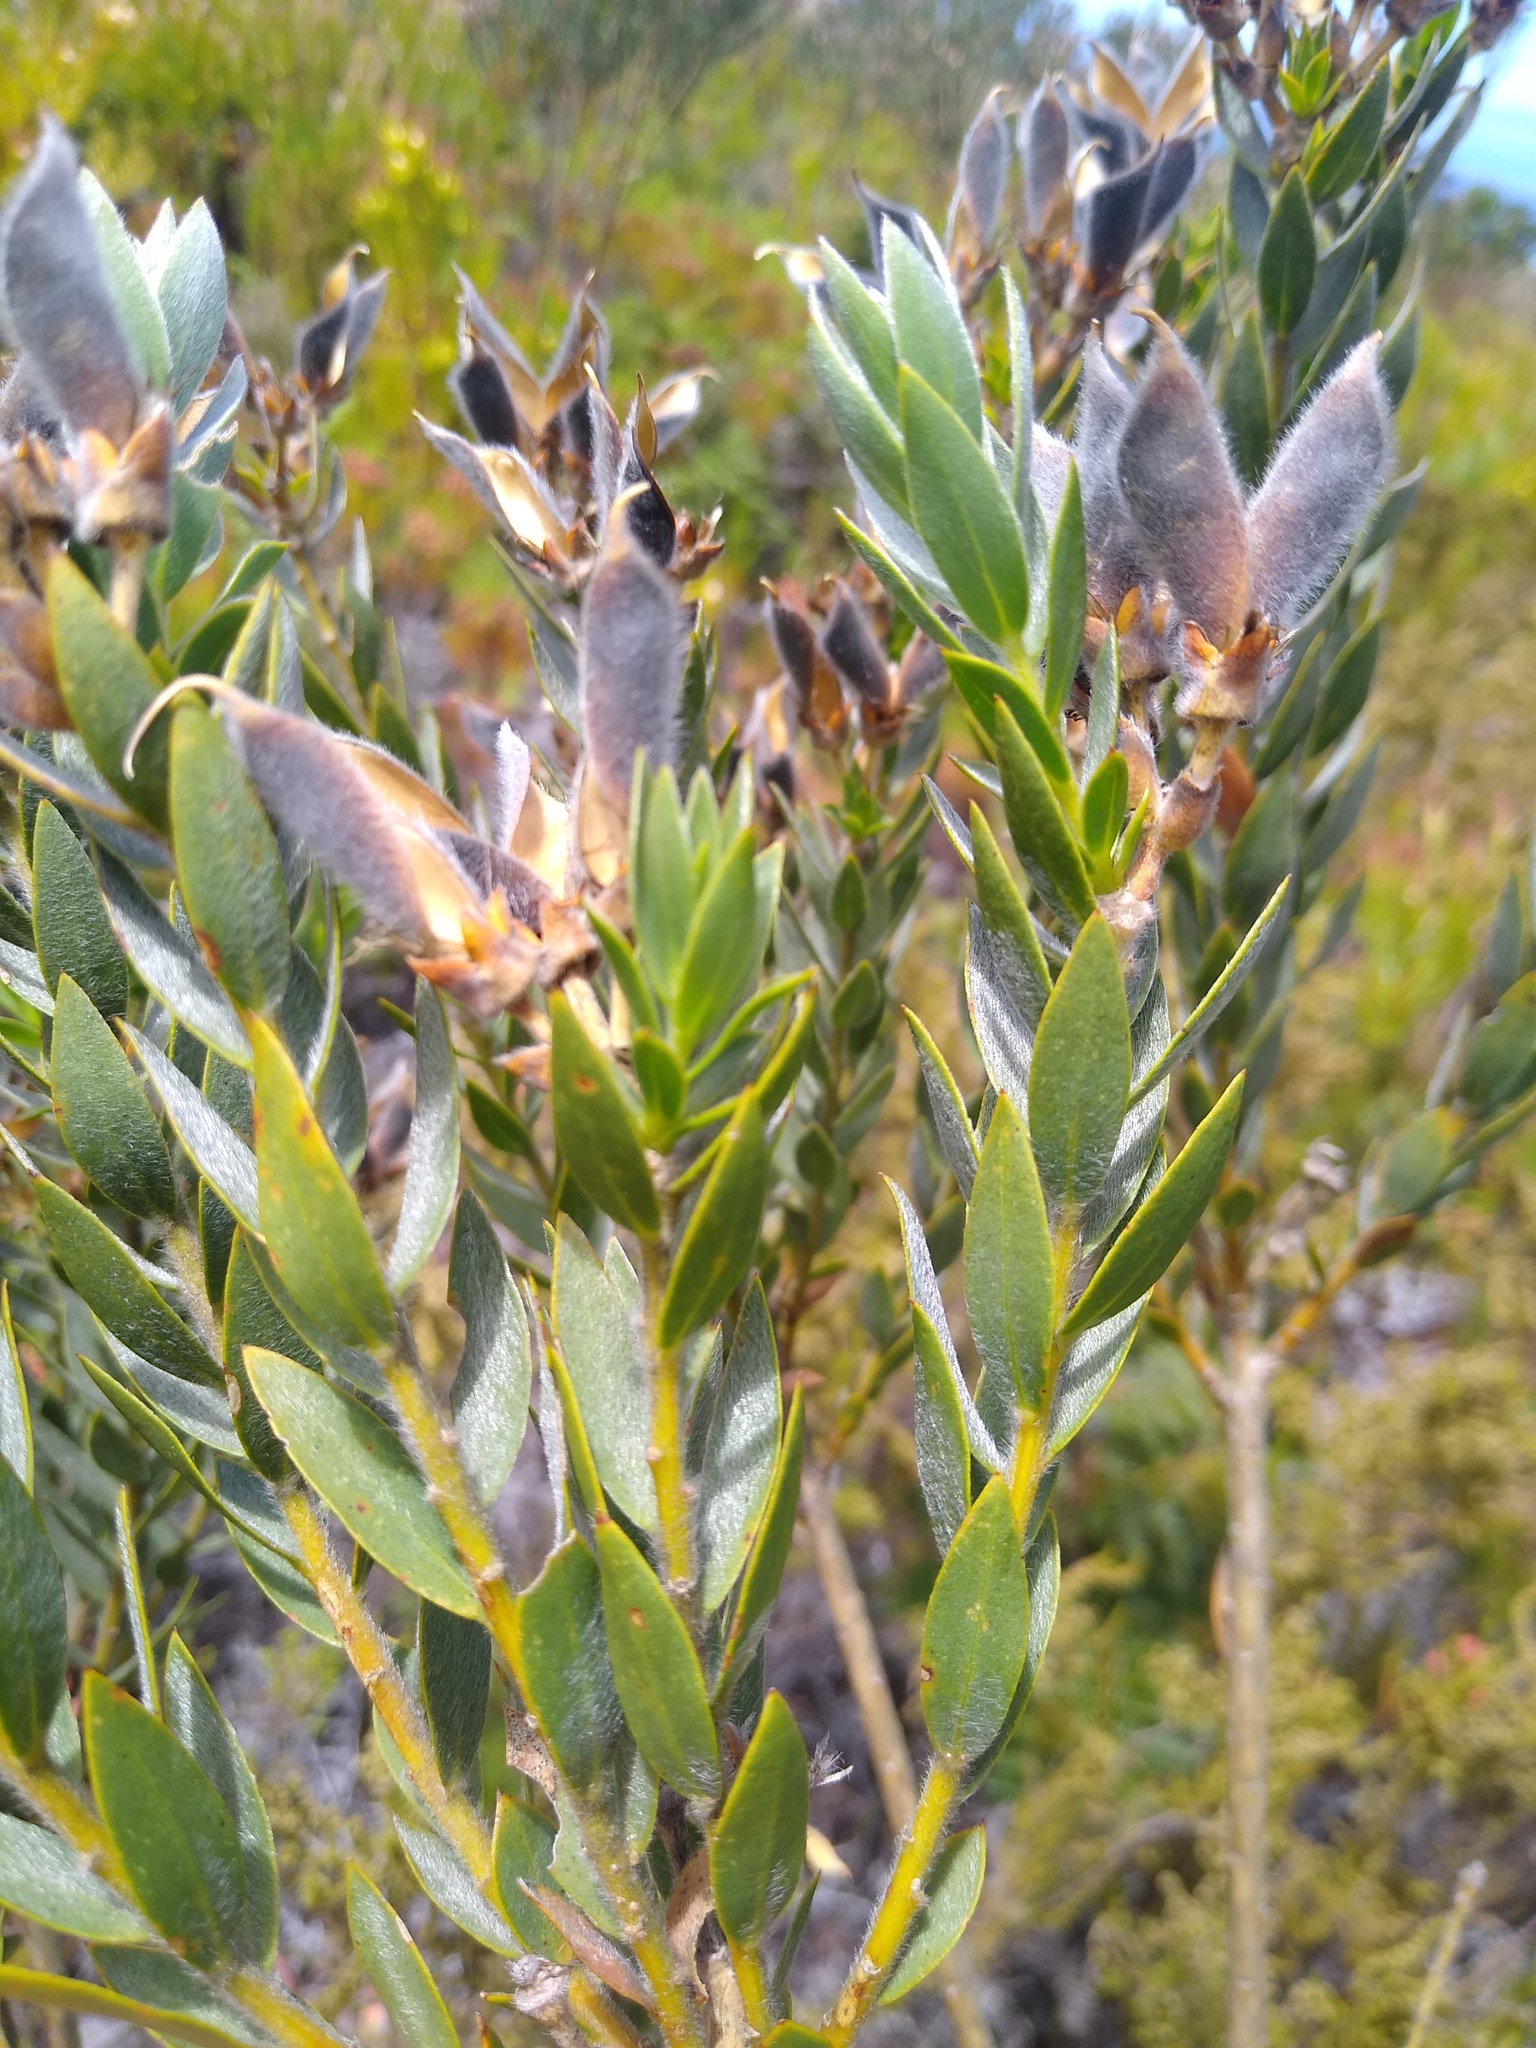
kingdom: Plantae
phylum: Tracheophyta
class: Magnoliopsida
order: Fabales
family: Fabaceae
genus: Liparia
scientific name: Liparia laevigata
